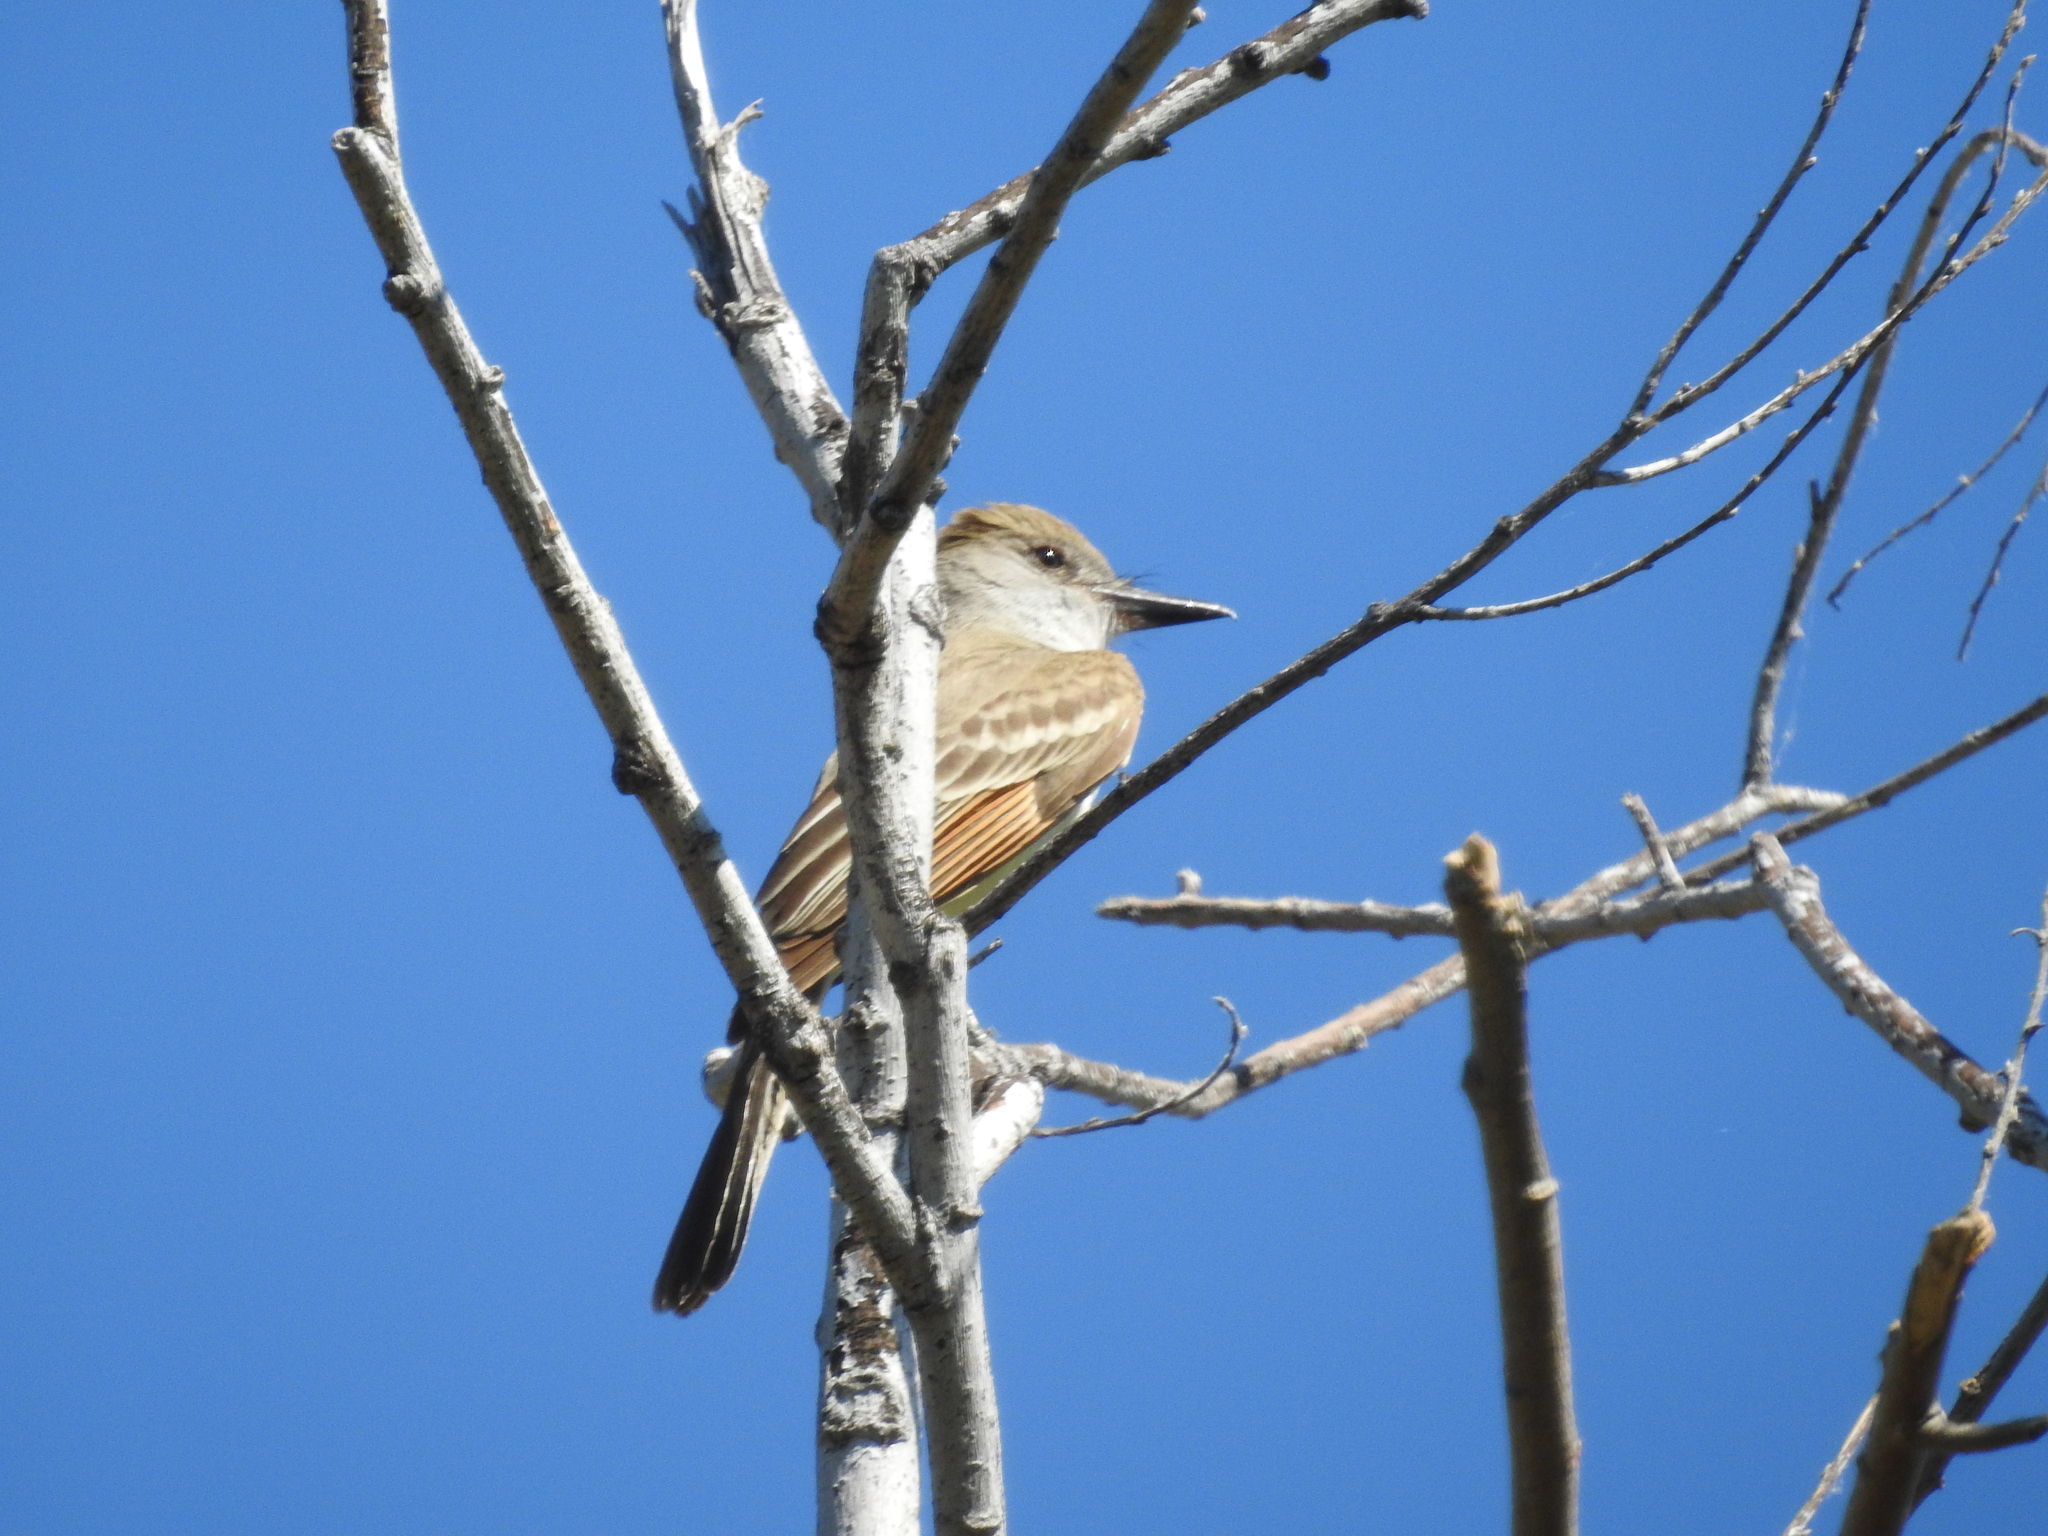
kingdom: Animalia
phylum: Chordata
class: Aves
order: Passeriformes
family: Tyrannidae
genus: Myiarchus
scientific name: Myiarchus tyrannulus
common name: Brown-crested flycatcher
